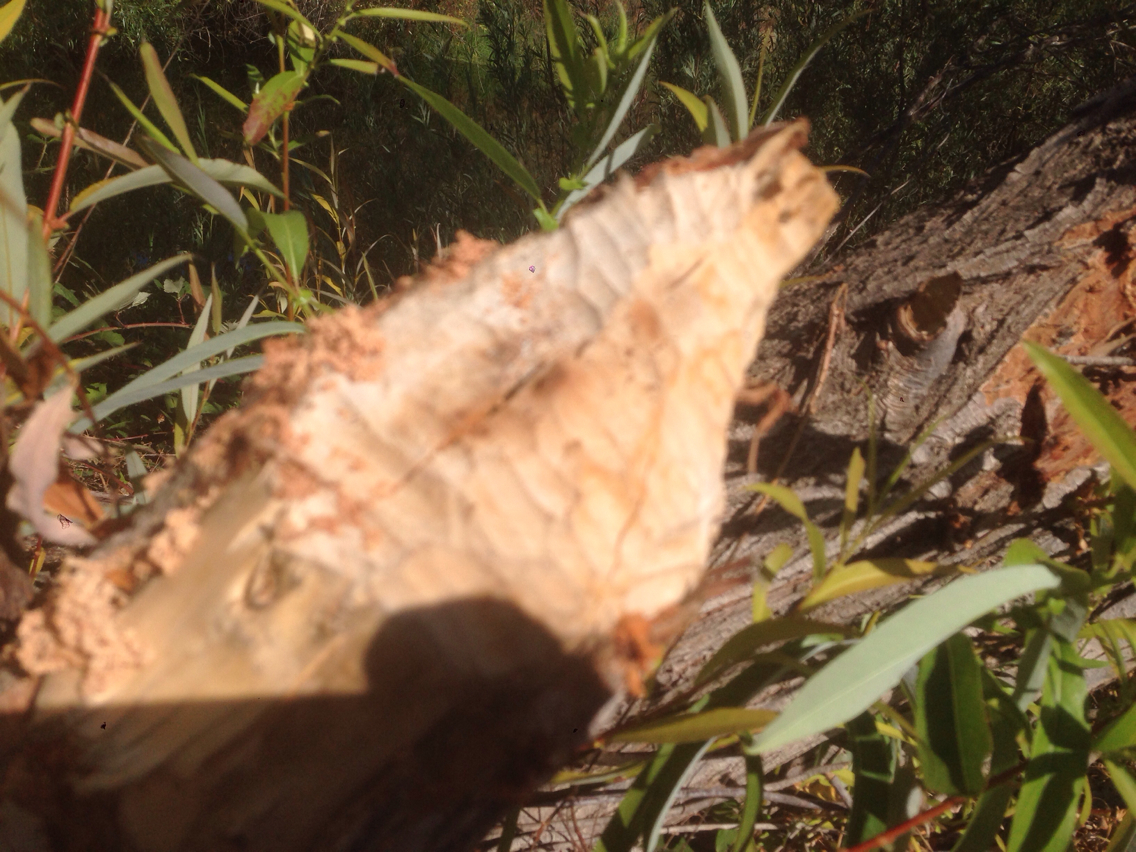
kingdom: Animalia
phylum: Chordata
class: Mammalia
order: Rodentia
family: Castoridae
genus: Castor
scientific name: Castor canadensis
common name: American beaver
